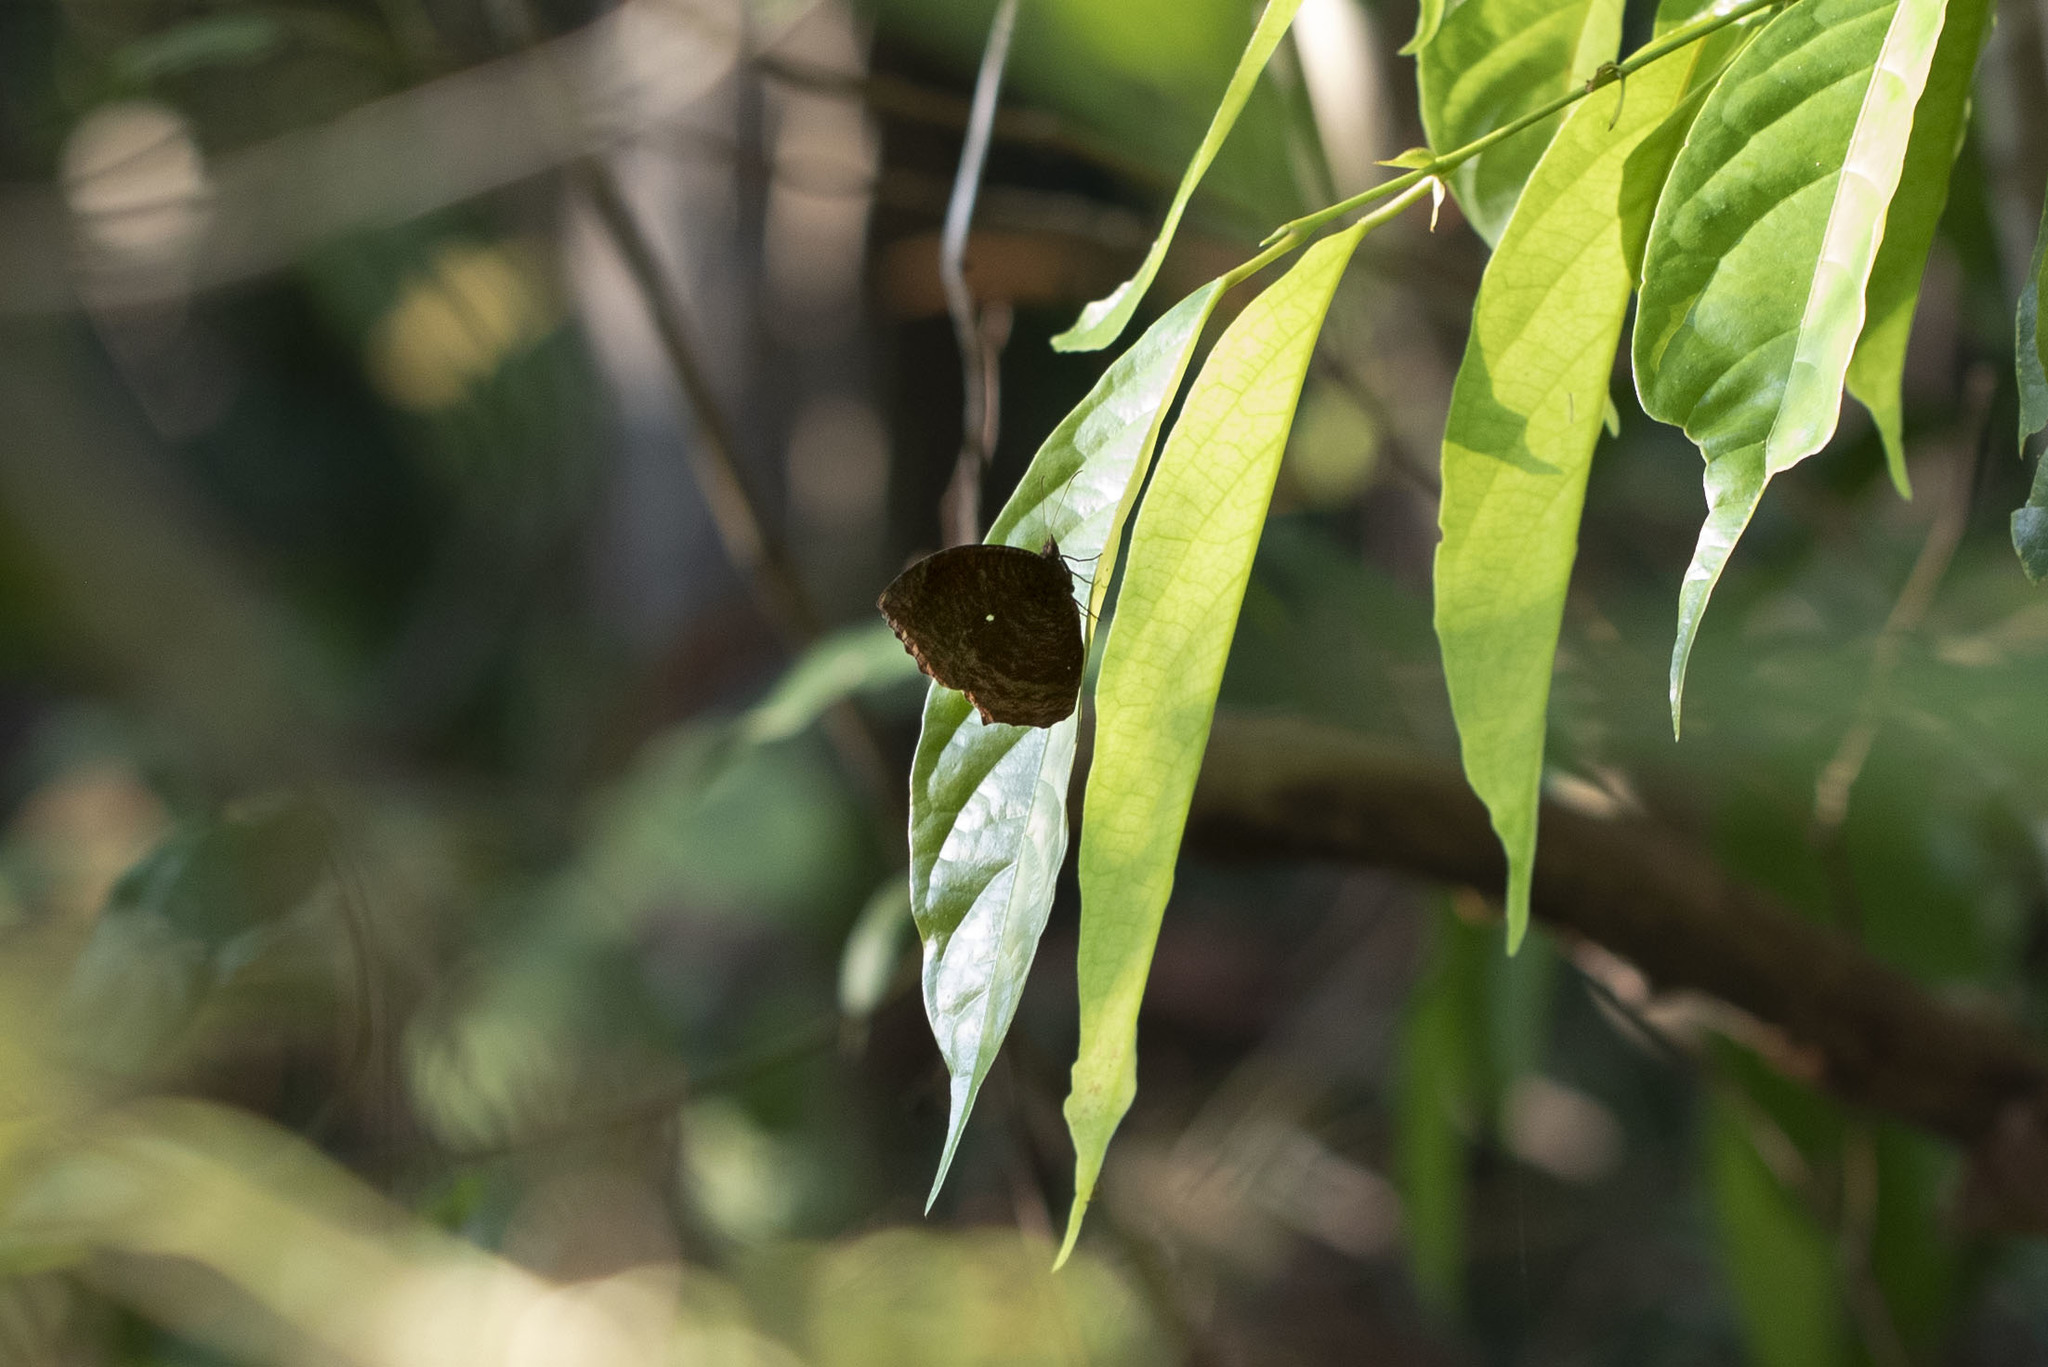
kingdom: Animalia
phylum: Arthropoda
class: Insecta
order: Lepidoptera
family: Nymphalidae
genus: Elymnias
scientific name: Elymnias hypermnestra
